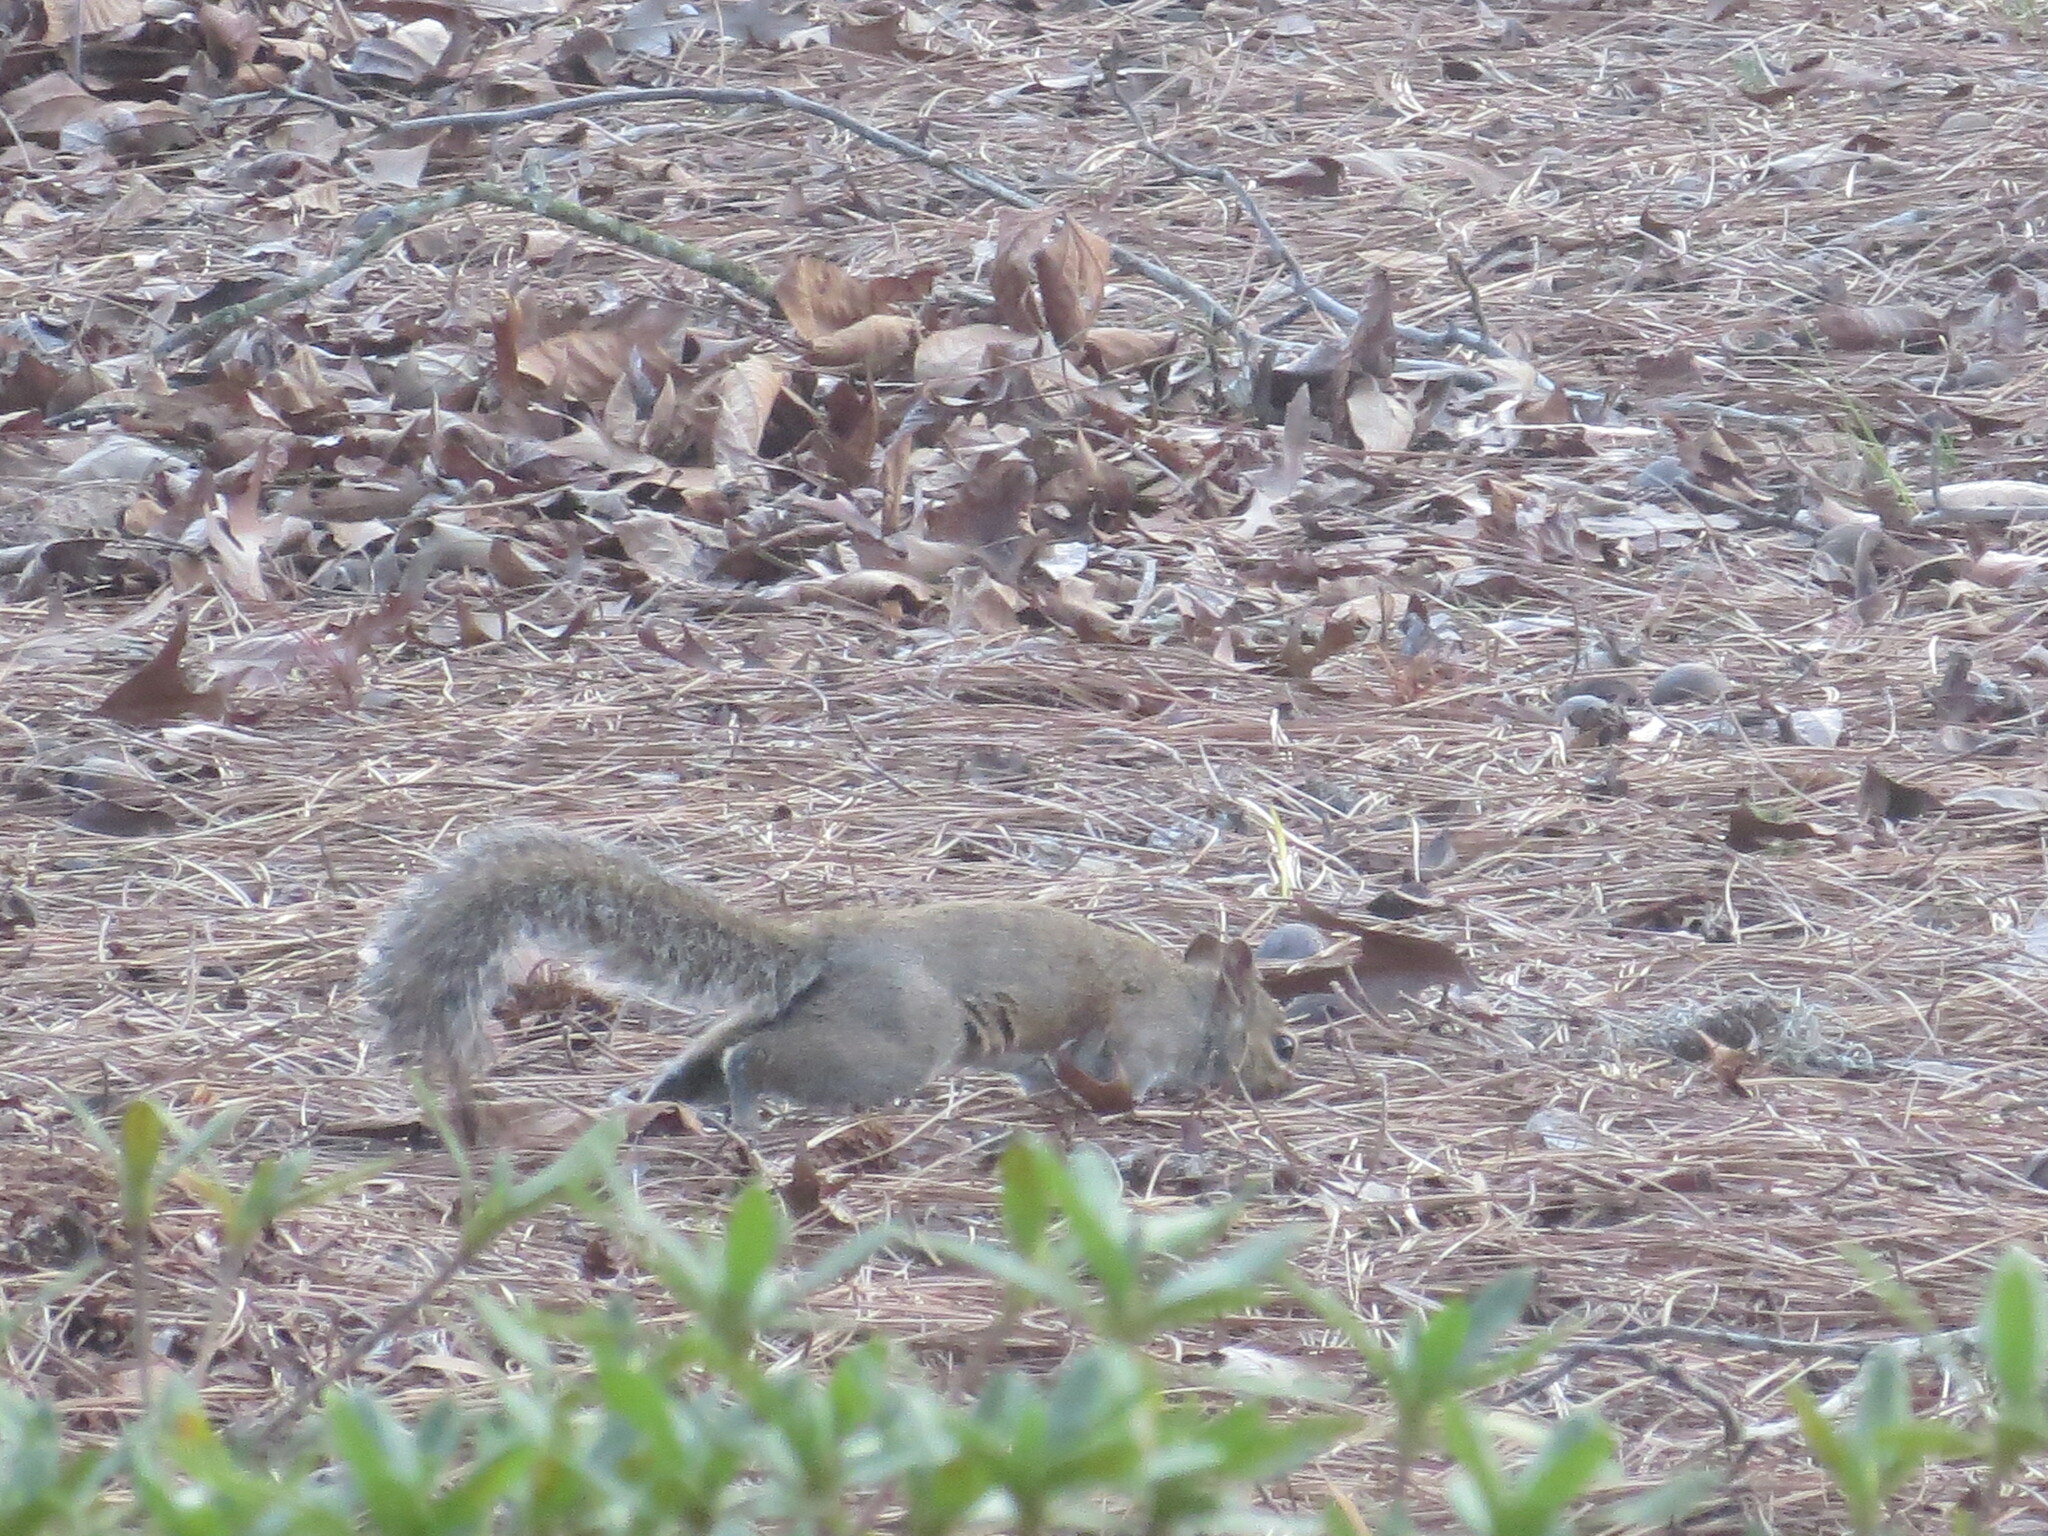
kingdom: Animalia
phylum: Chordata
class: Mammalia
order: Rodentia
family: Sciuridae
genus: Sciurus
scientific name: Sciurus carolinensis
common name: Eastern gray squirrel
